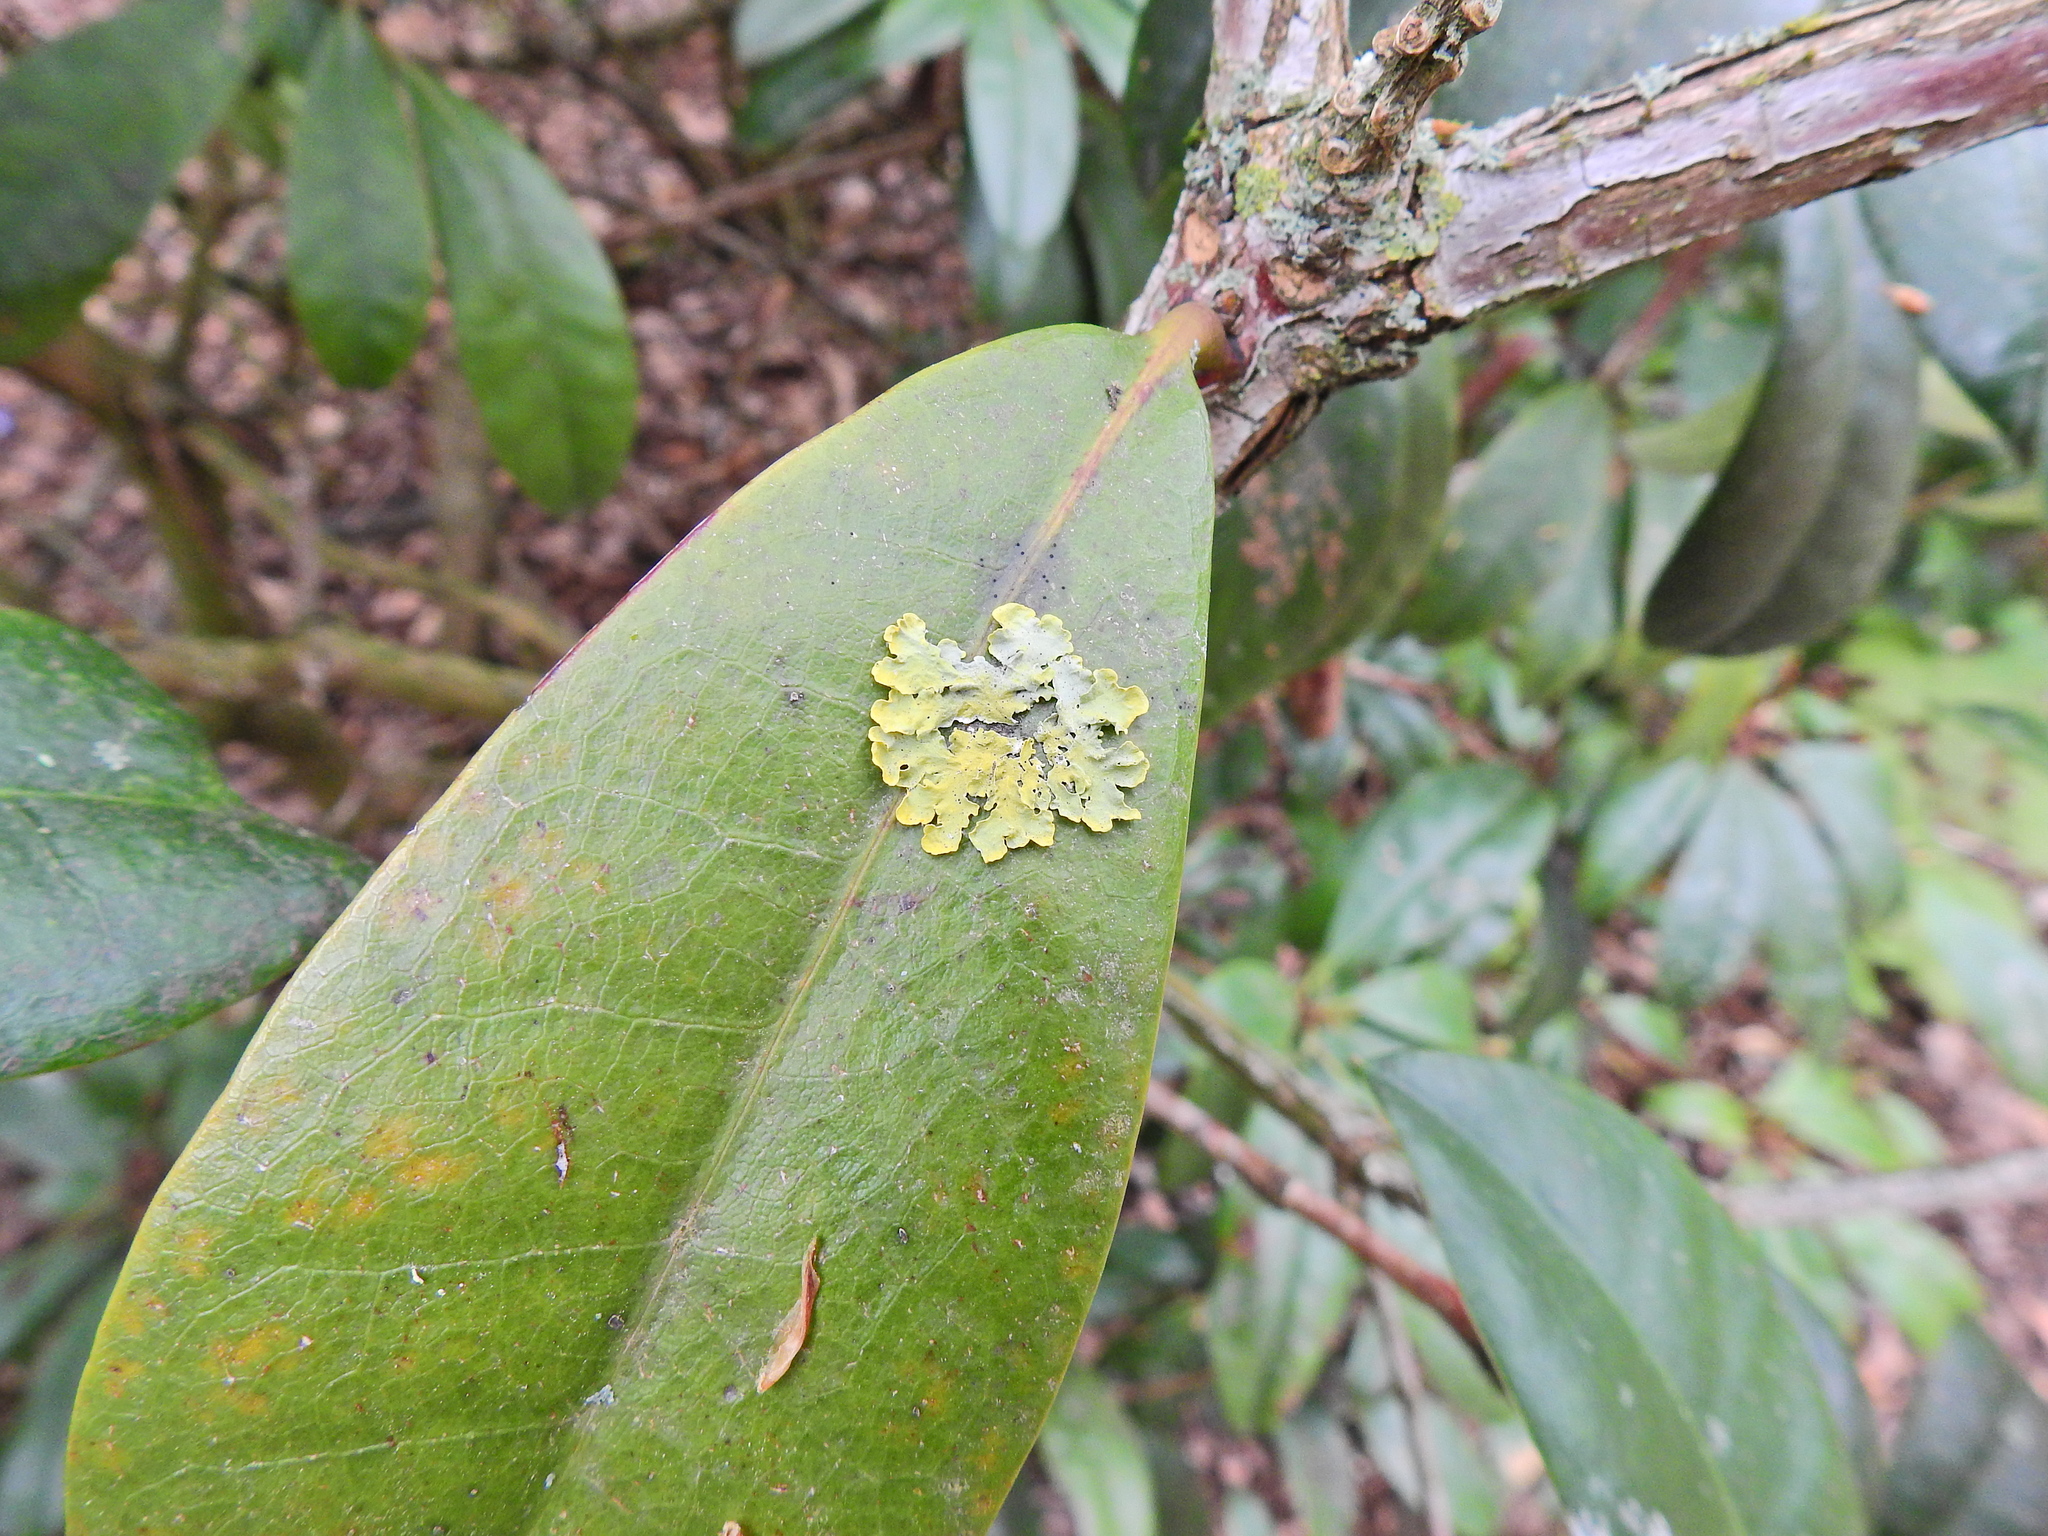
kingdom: Fungi
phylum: Ascomycota
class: Lecanoromycetes
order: Teloschistales
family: Teloschistaceae
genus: Xanthoria
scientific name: Xanthoria parietina
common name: Common orange lichen
